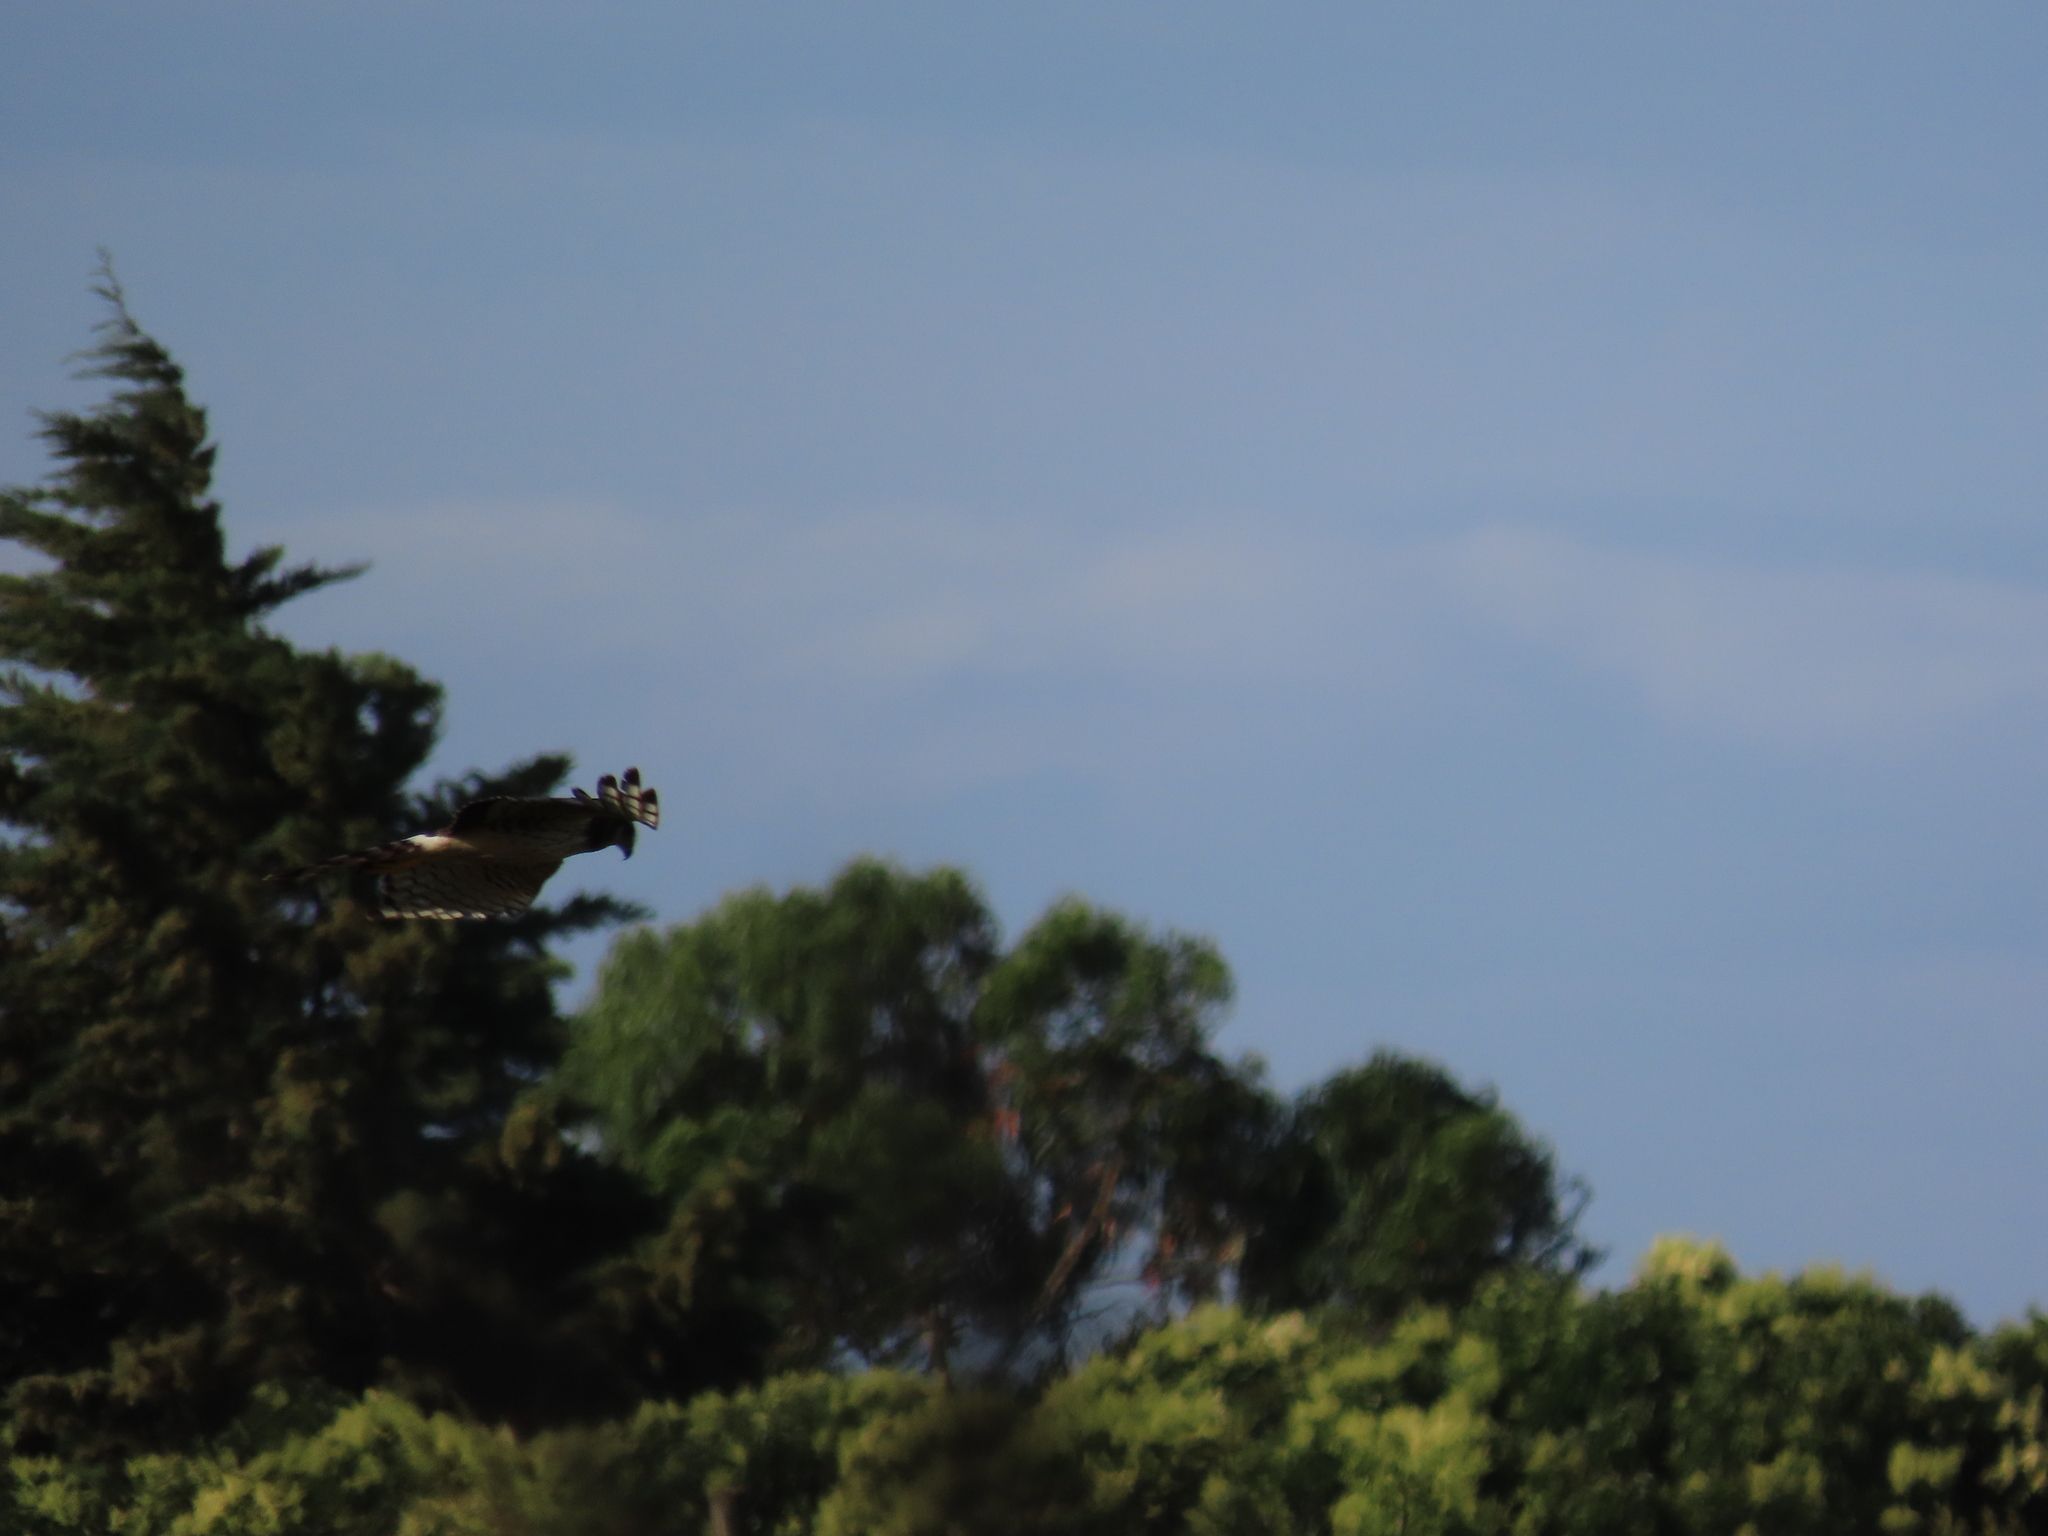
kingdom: Animalia
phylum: Chordata
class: Aves
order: Accipitriformes
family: Accipitridae
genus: Circus
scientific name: Circus buffoni
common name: Long-winged harrier
